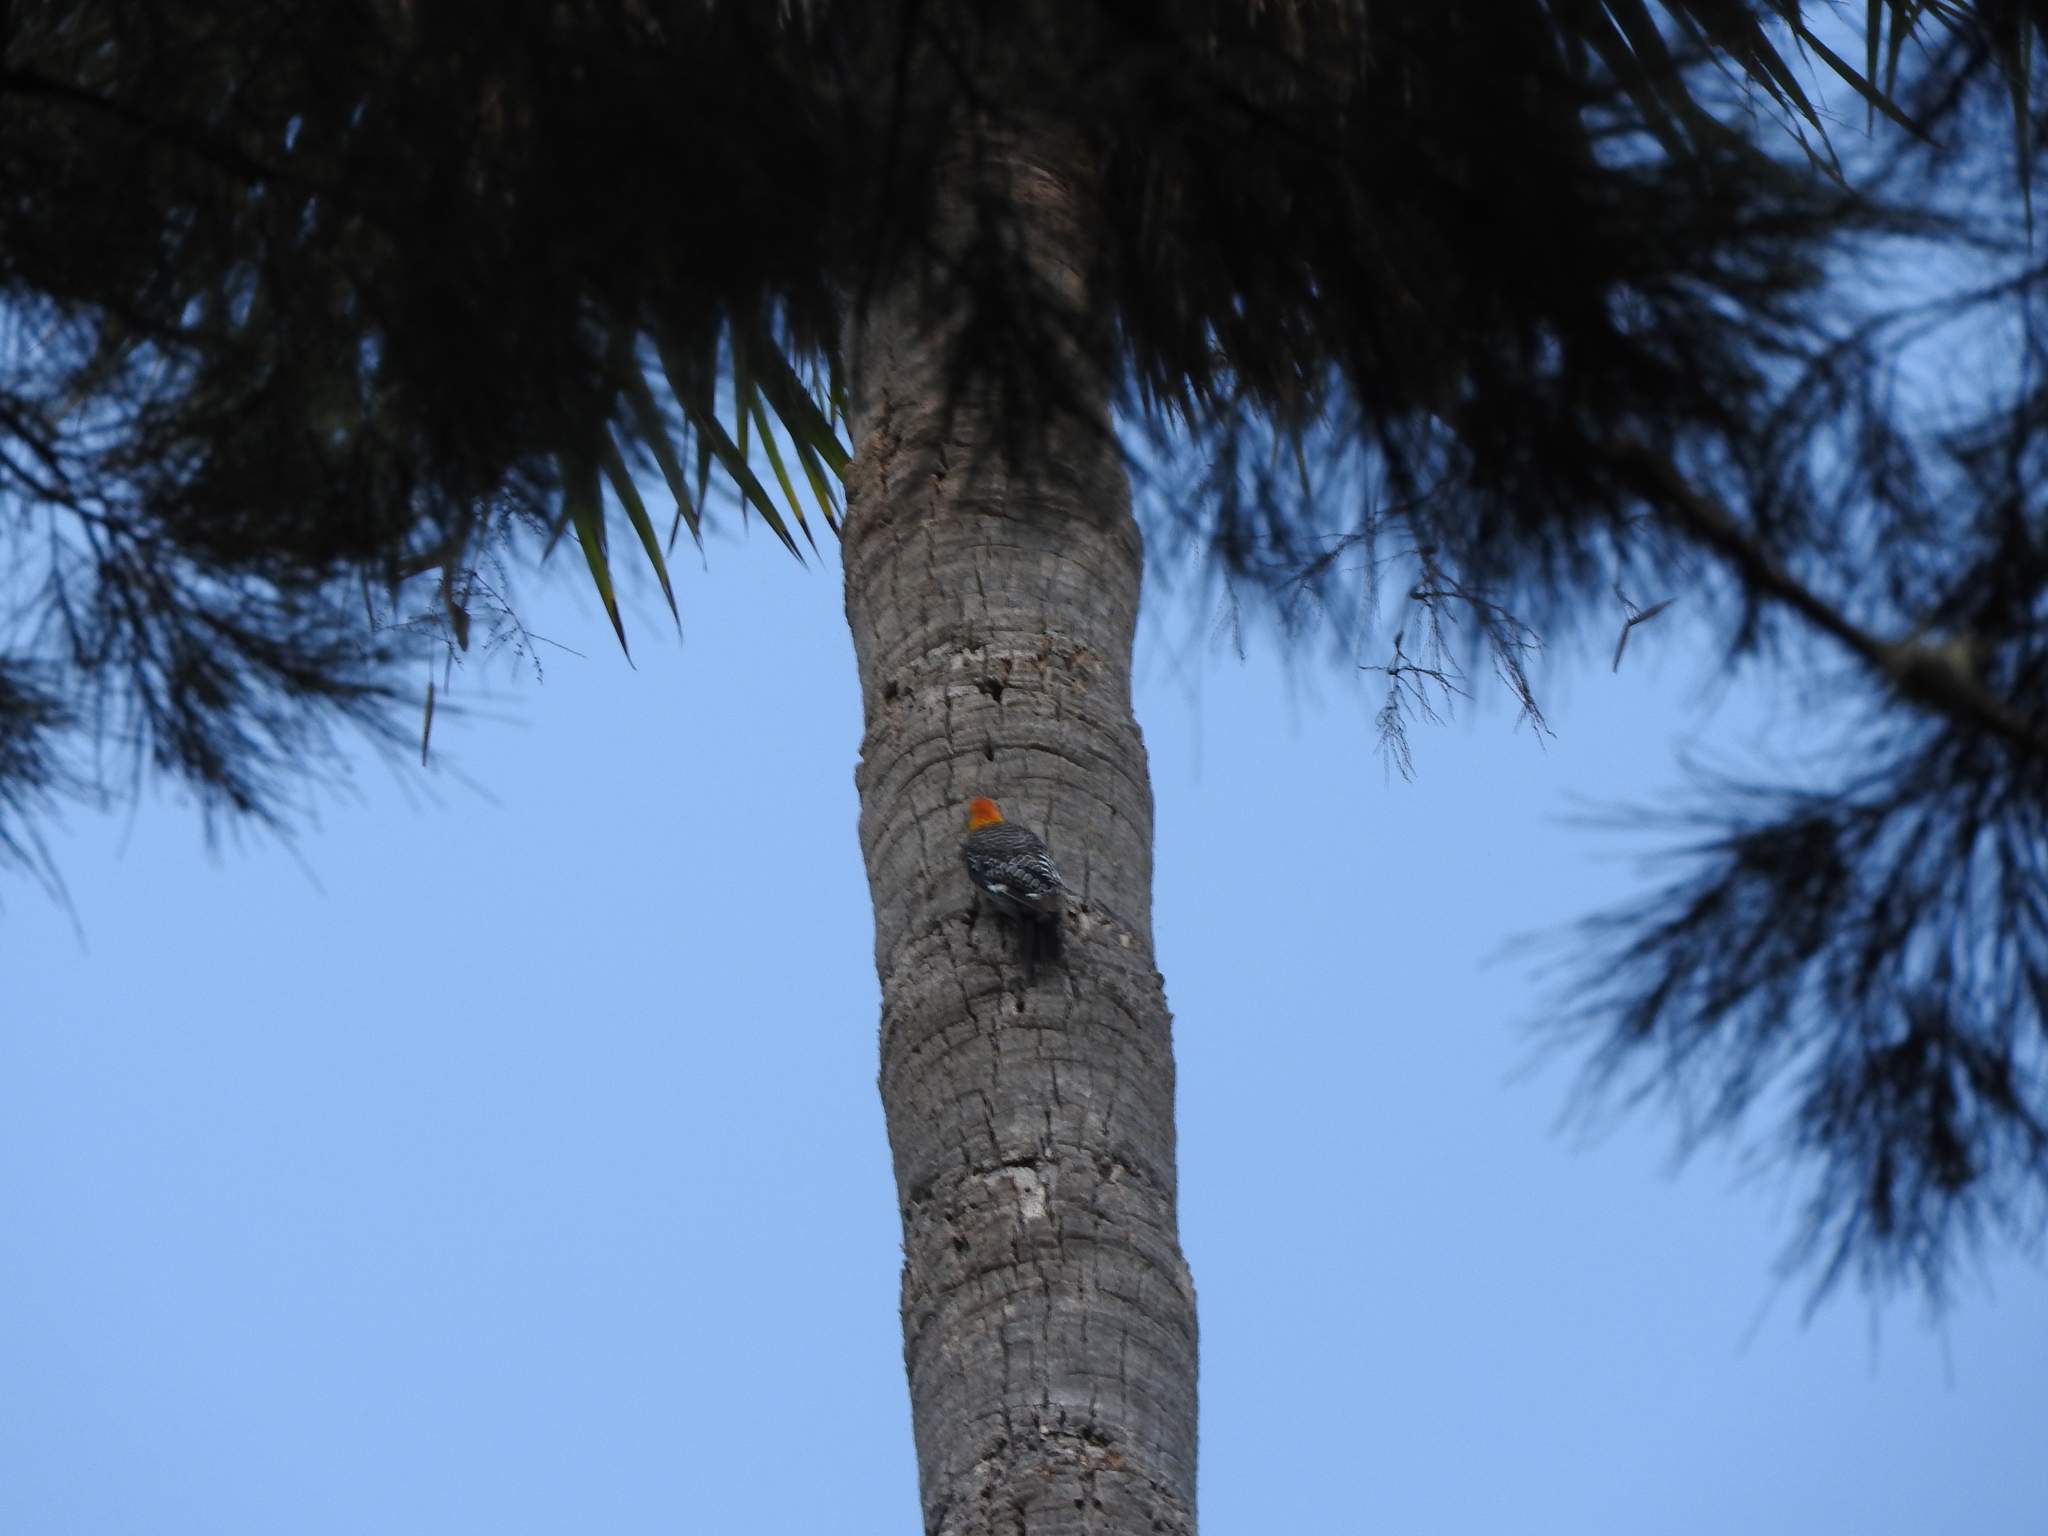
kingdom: Animalia
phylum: Chordata
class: Aves
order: Piciformes
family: Picidae
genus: Melanerpes
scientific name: Melanerpes aurifrons
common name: Golden-fronted woodpecker
